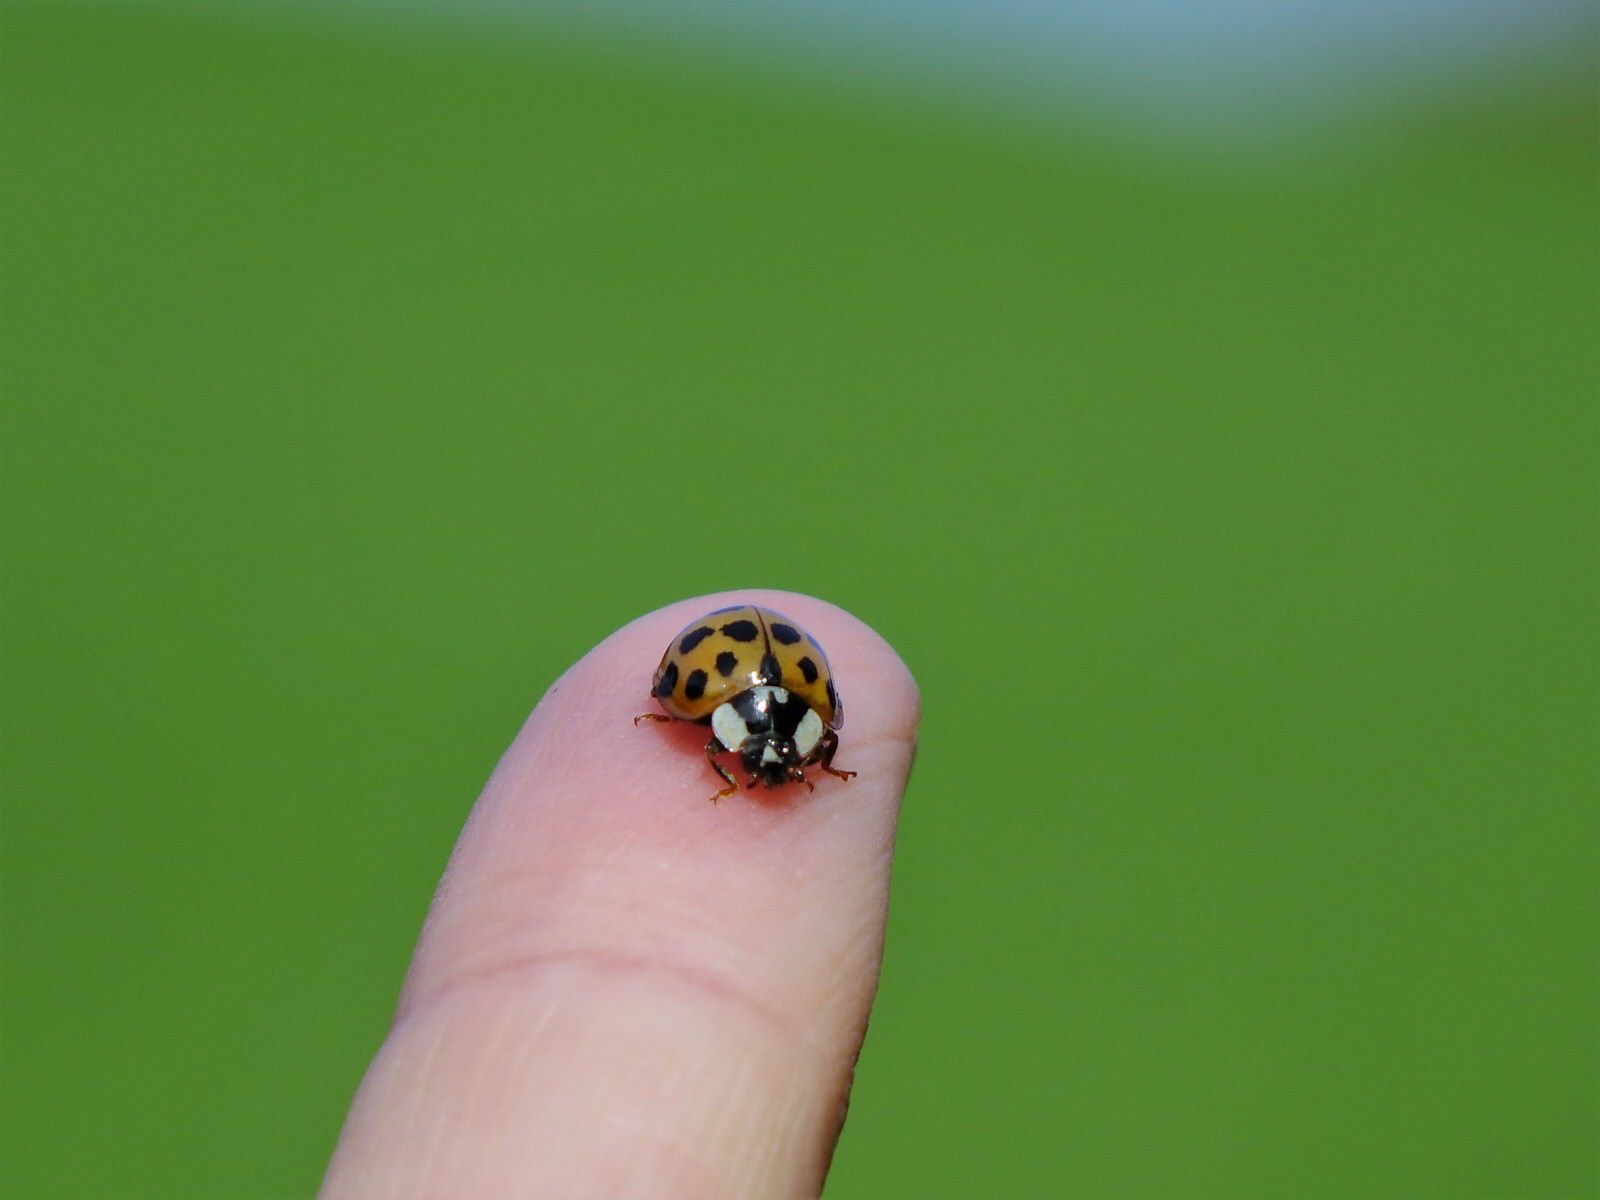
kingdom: Animalia
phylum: Arthropoda
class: Insecta
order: Coleoptera
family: Coccinellidae
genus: Harmonia
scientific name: Harmonia axyridis
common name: Harlequin ladybird
